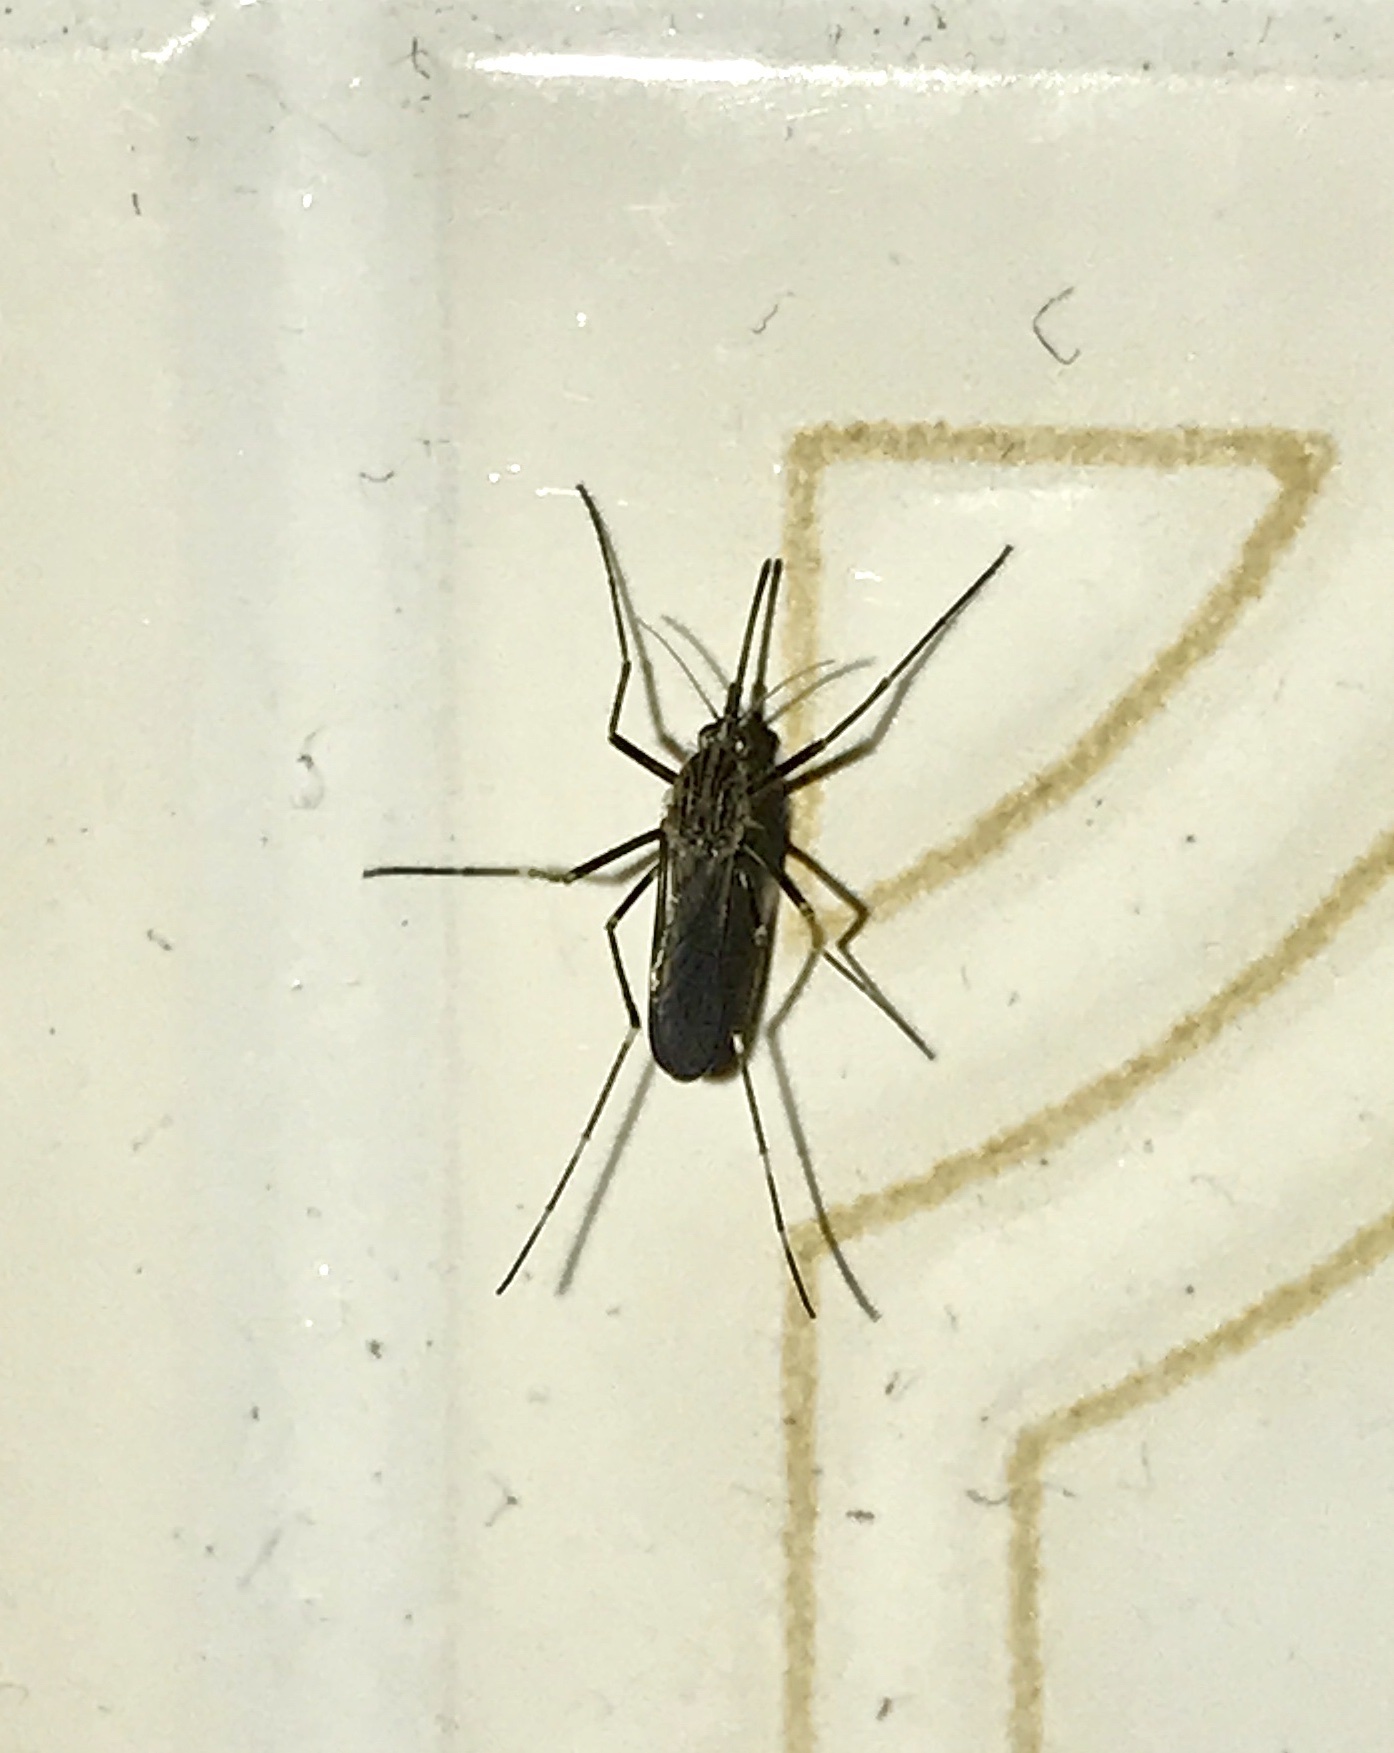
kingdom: Animalia
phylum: Arthropoda
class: Insecta
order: Diptera
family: Culicidae
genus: Aedes
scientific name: Aedes japonicus
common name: Asian bush mosquito
